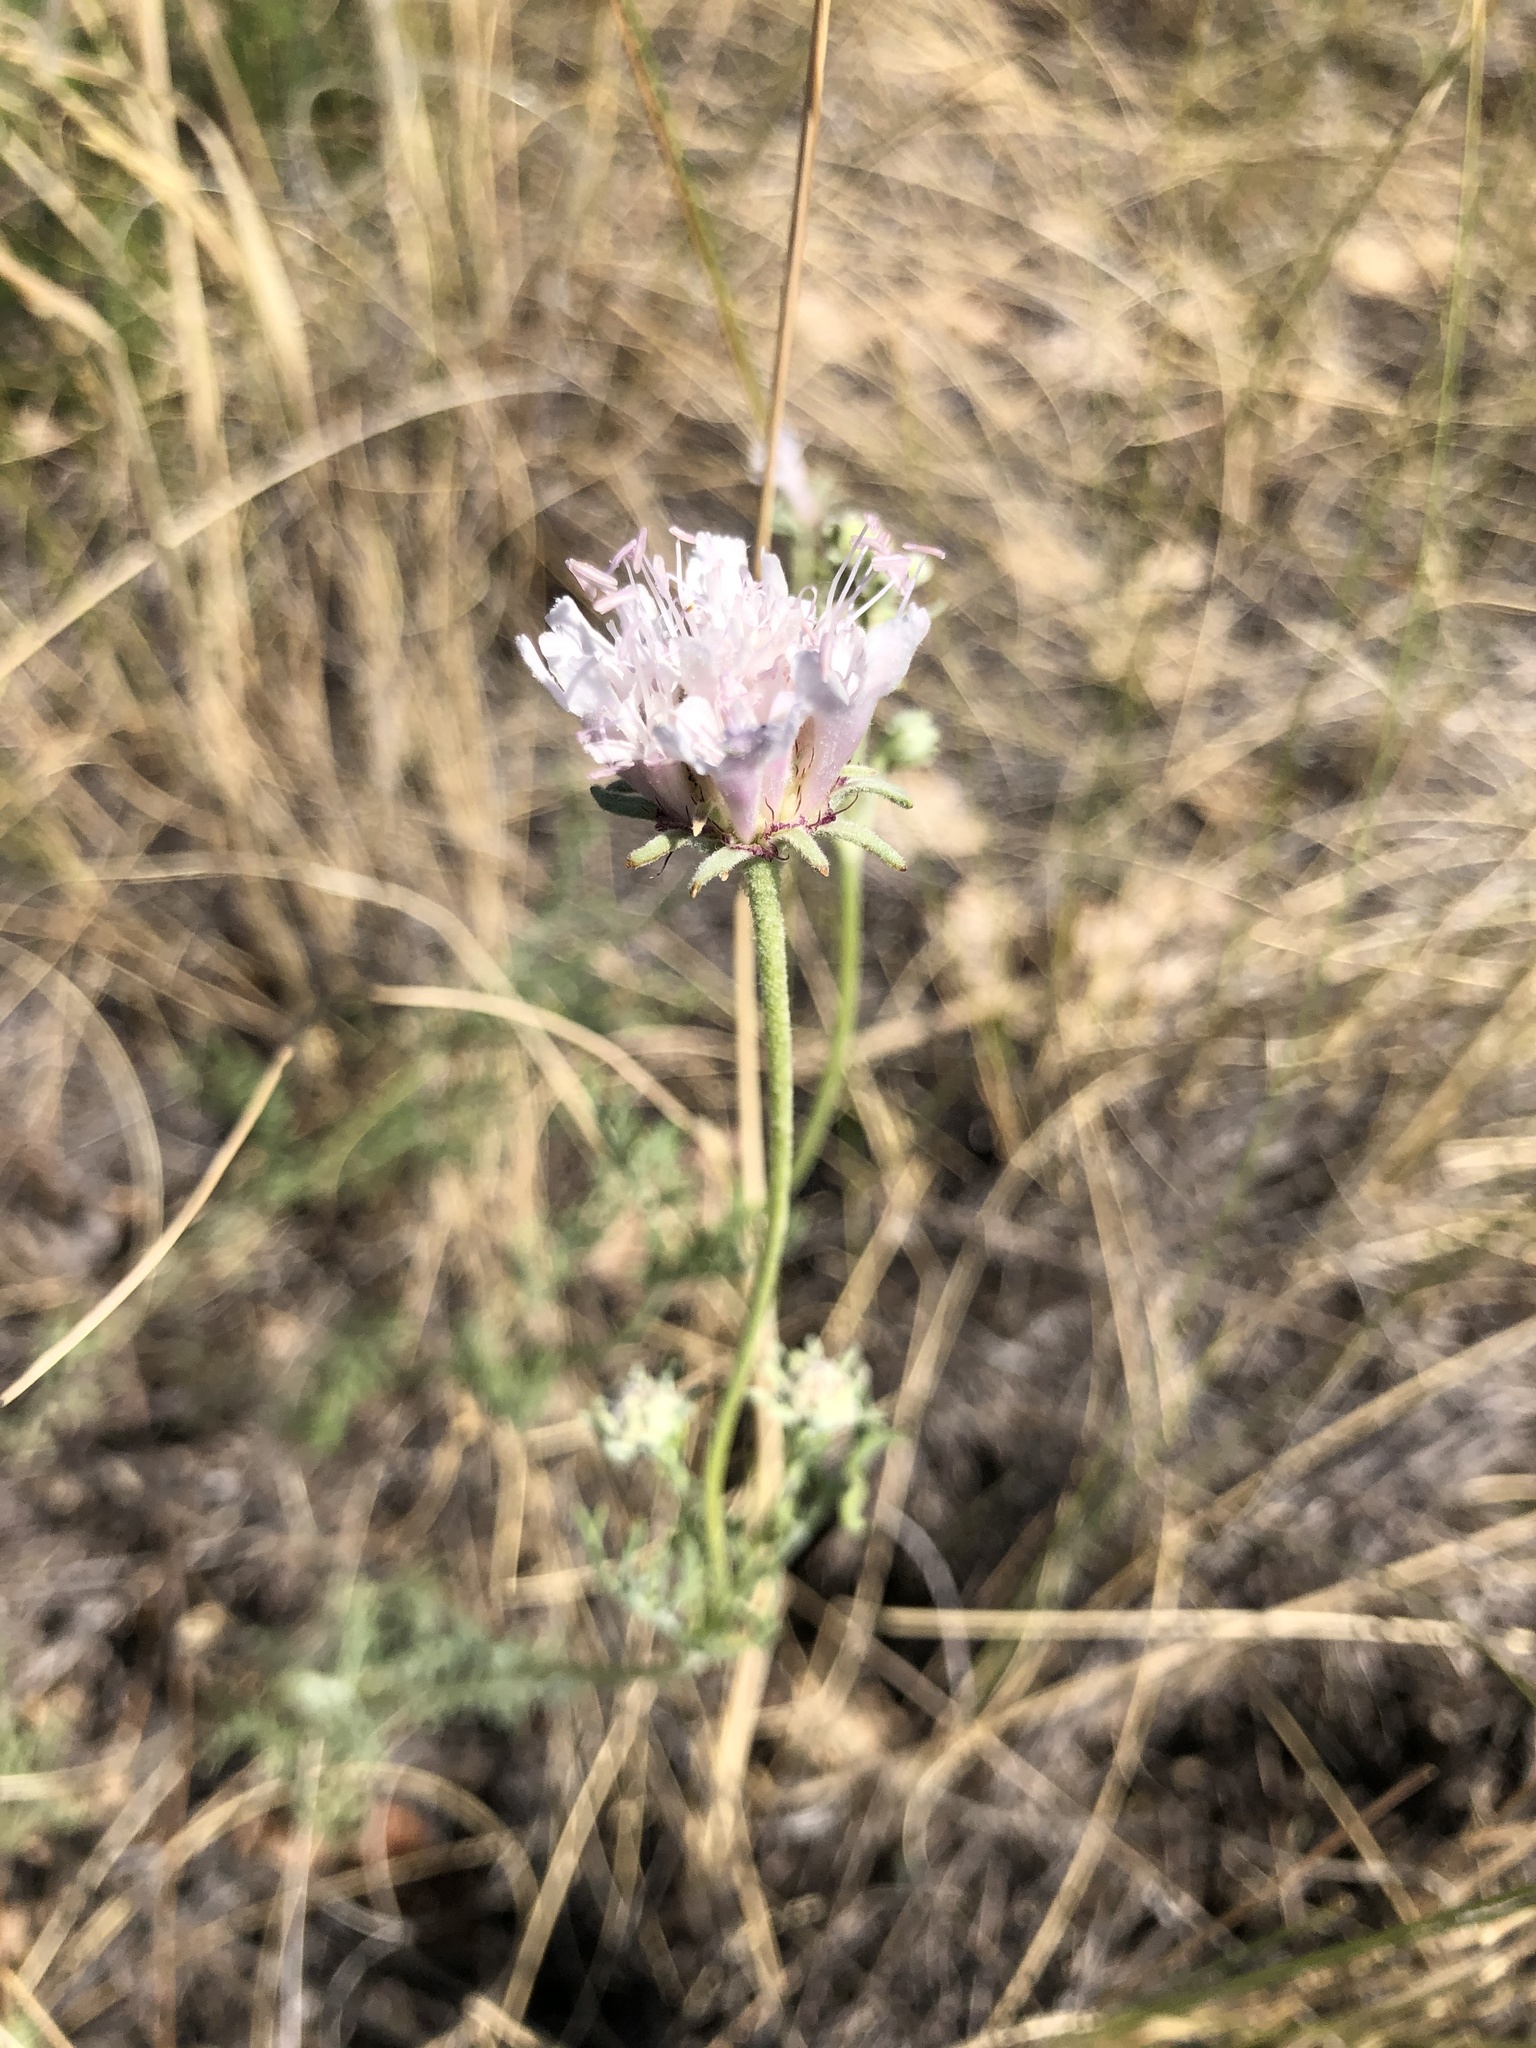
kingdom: Plantae
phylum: Tracheophyta
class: Magnoliopsida
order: Dipsacales
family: Caprifoliaceae
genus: Lomelosia
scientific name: Lomelosia isetensis
